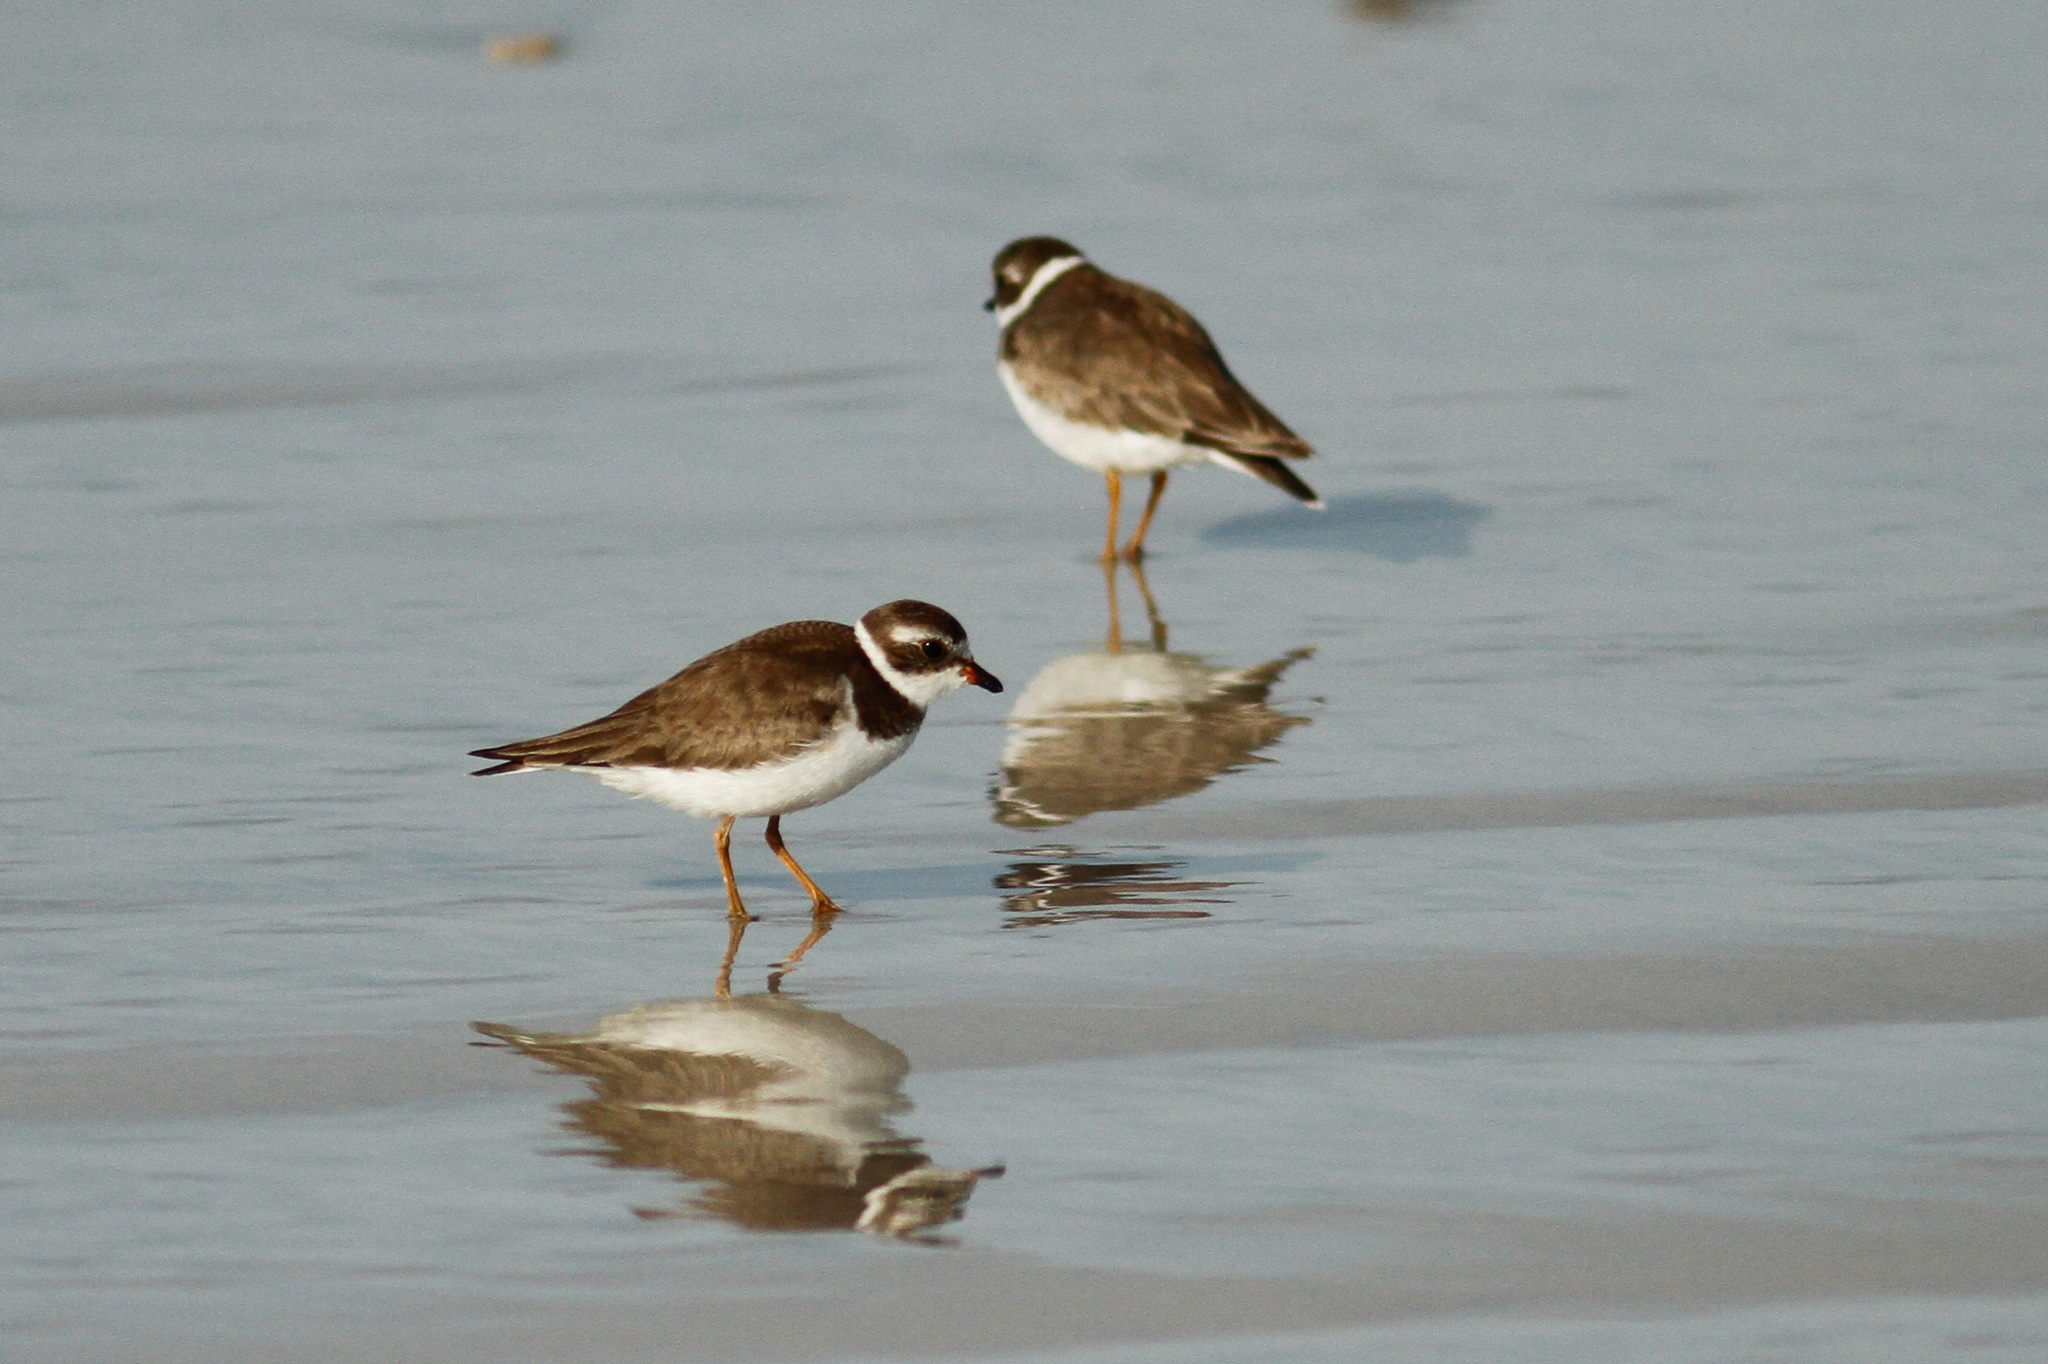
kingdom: Animalia
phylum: Chordata
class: Aves
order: Charadriiformes
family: Charadriidae
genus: Charadrius
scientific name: Charadrius semipalmatus
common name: Semipalmated plover
